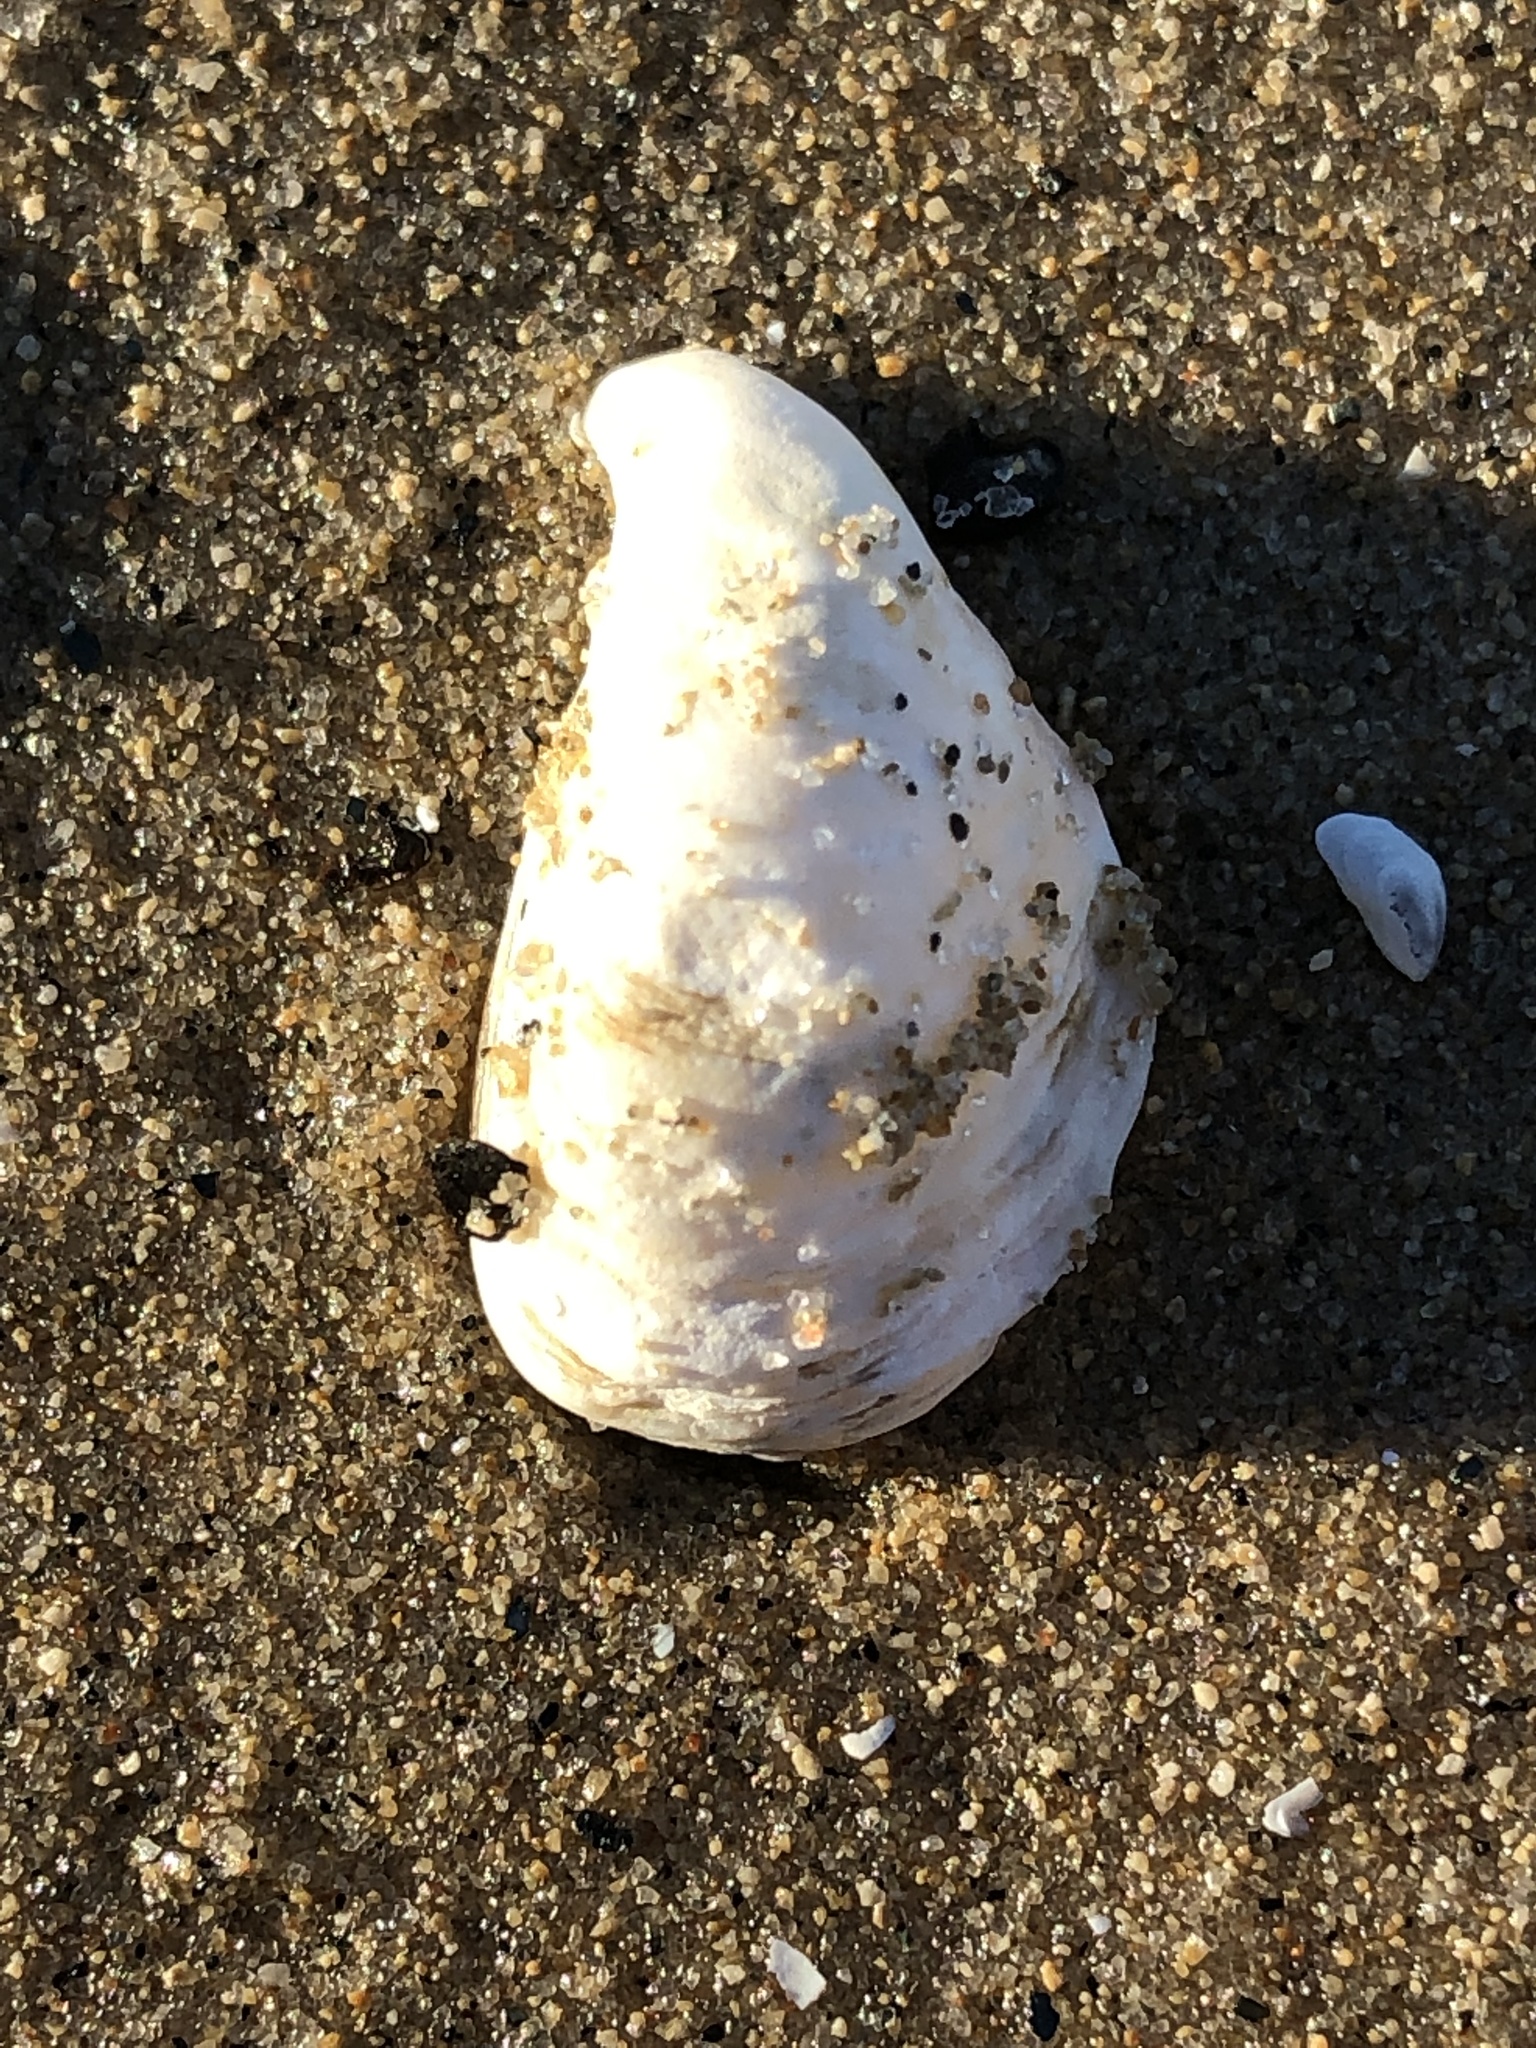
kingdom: Animalia
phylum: Mollusca
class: Bivalvia
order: Myida
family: Dreissenidae
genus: Dreissena
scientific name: Dreissena bugensis
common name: Quagga mussel
